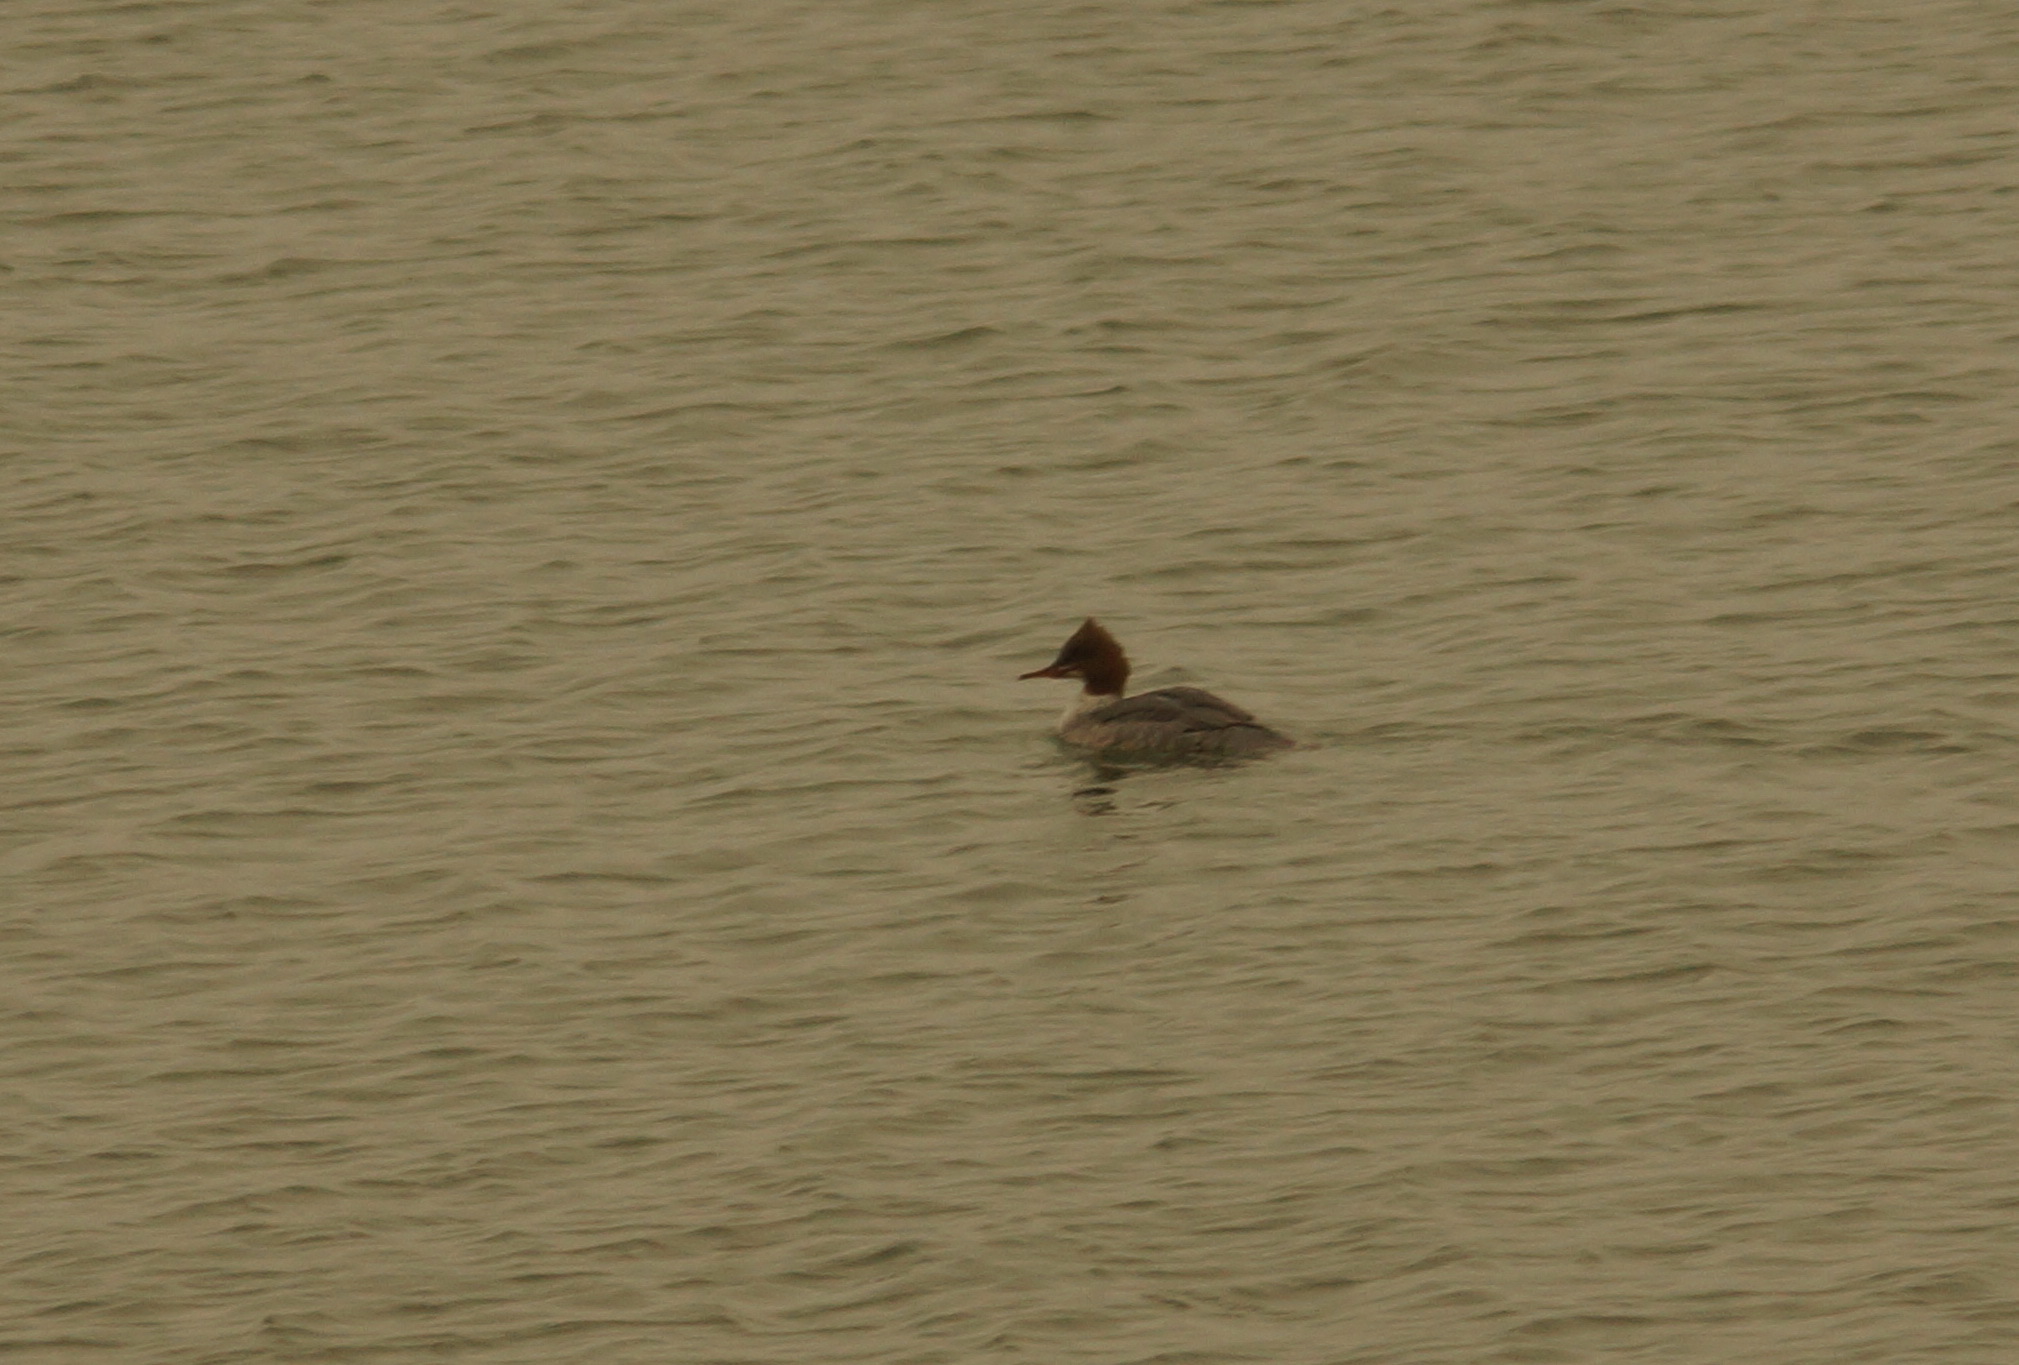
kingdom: Animalia
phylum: Chordata
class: Aves
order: Anseriformes
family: Anatidae
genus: Mergus
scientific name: Mergus merganser
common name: Common merganser
